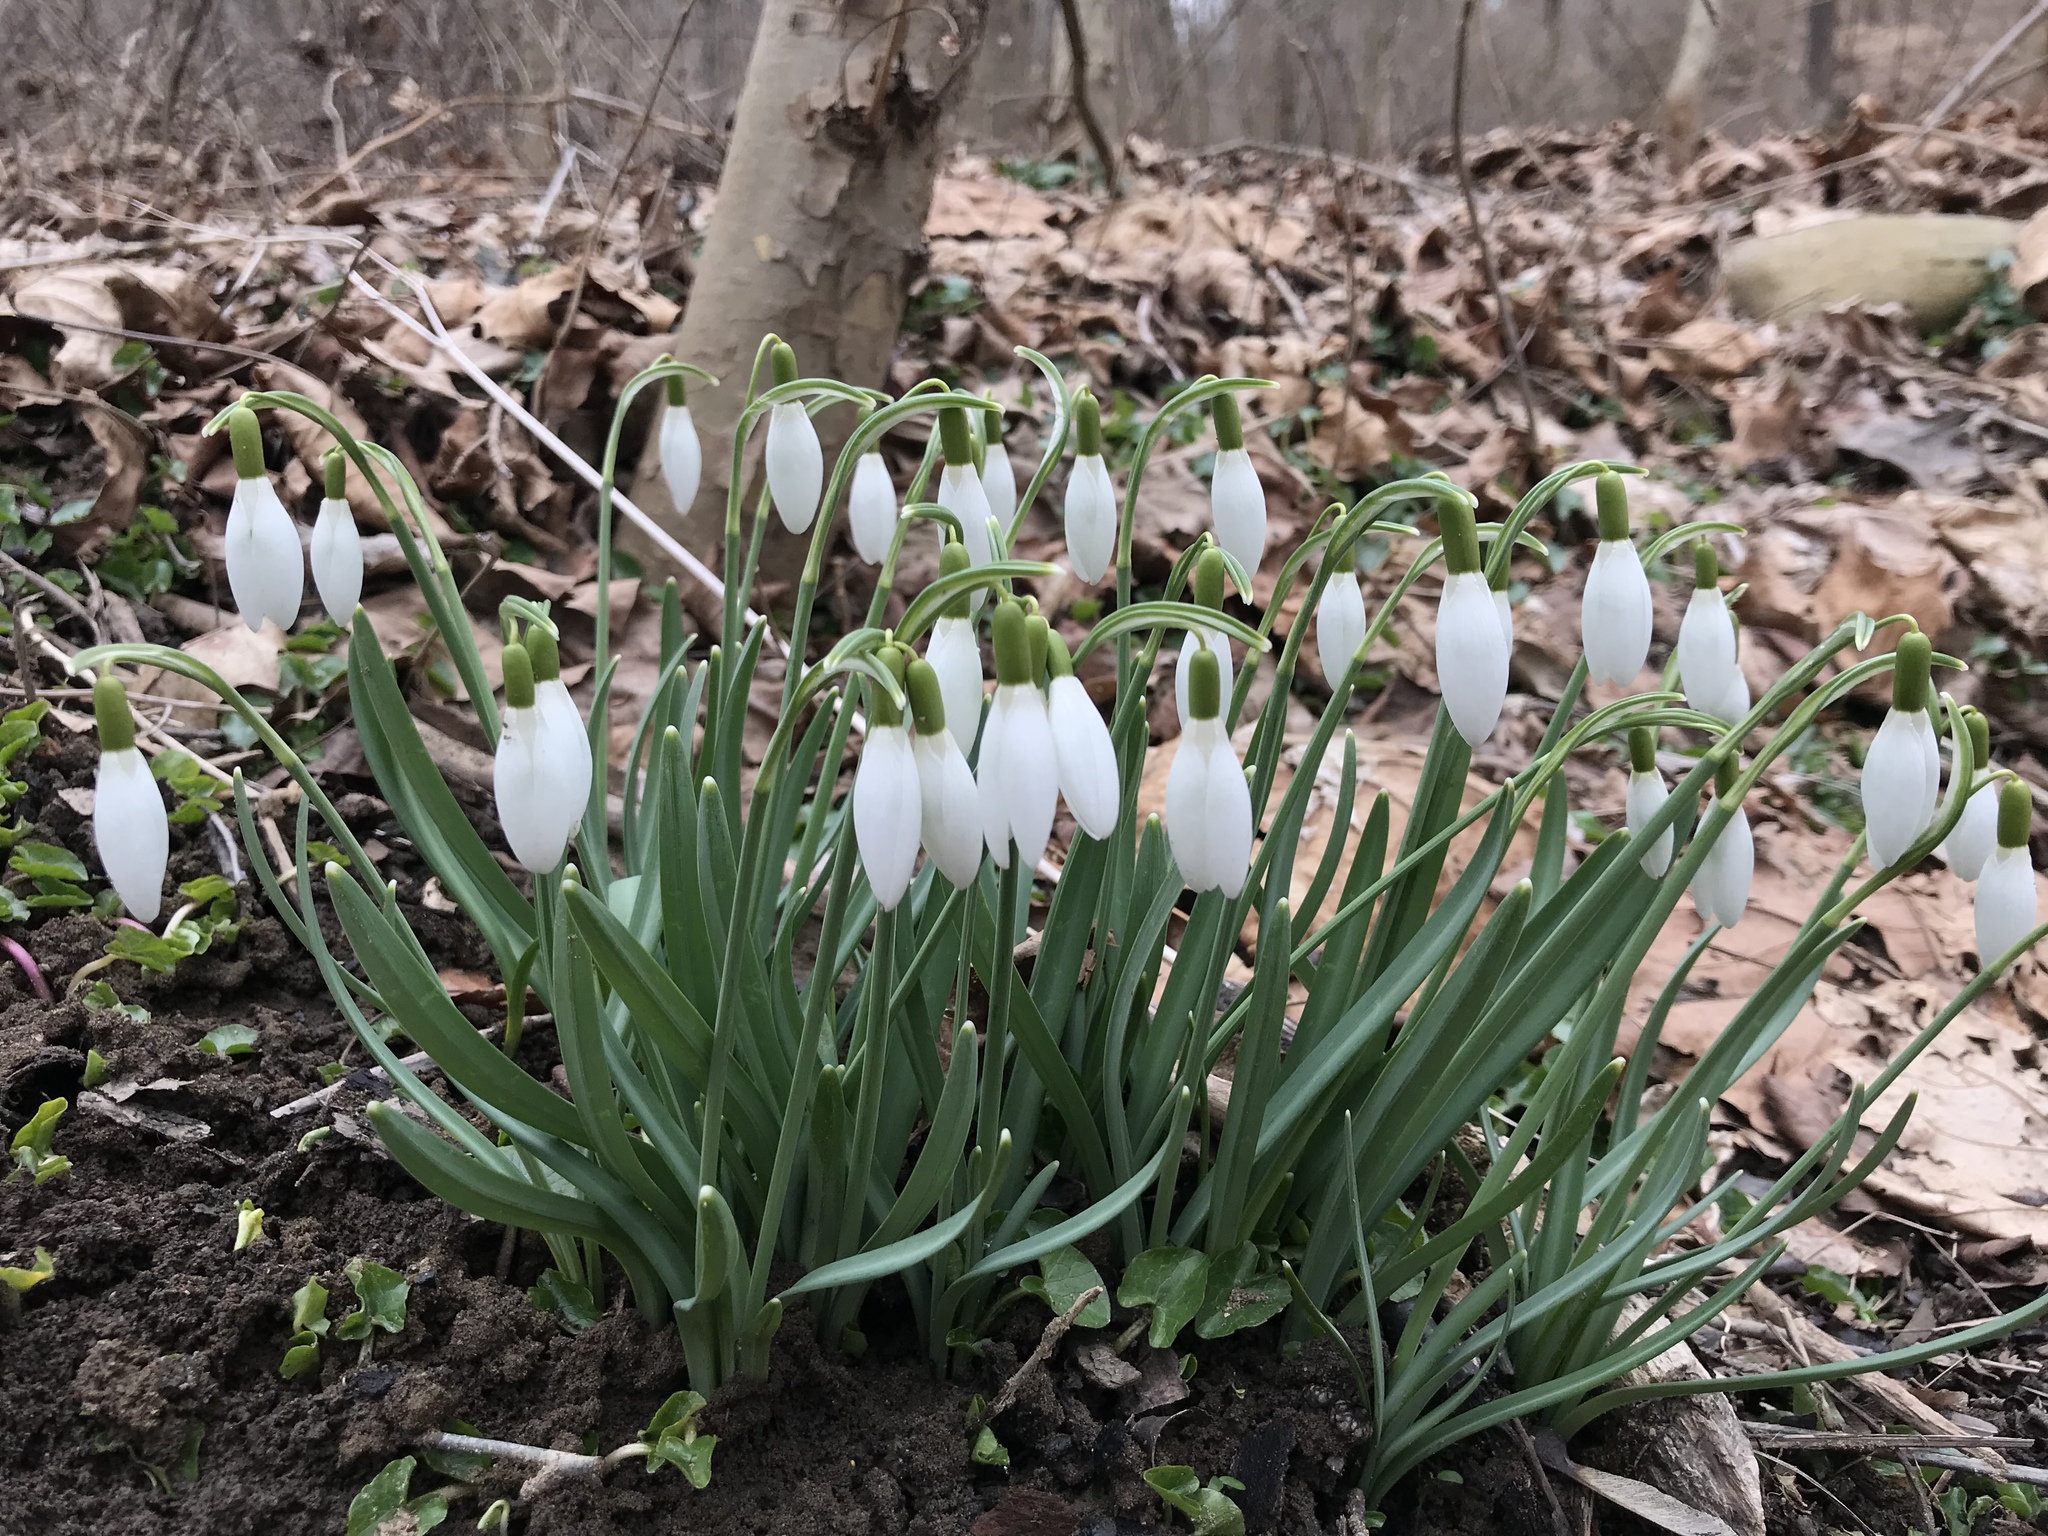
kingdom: Plantae
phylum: Tracheophyta
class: Liliopsida
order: Asparagales
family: Amaryllidaceae
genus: Galanthus
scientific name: Galanthus nivalis
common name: Snowdrop
